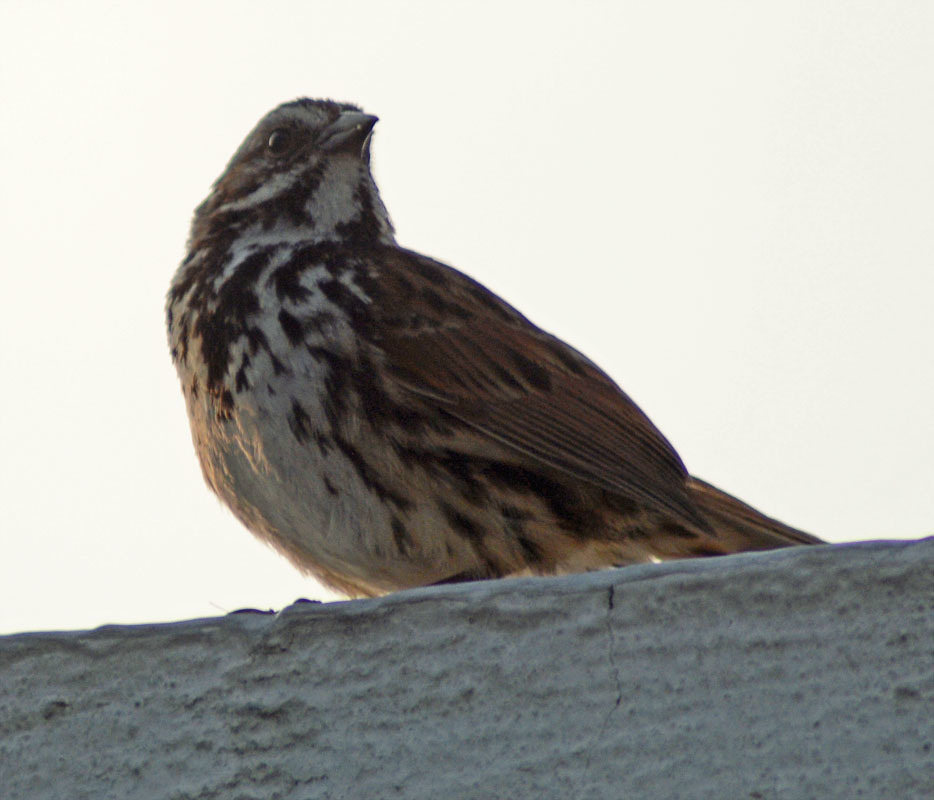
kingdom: Animalia
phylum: Chordata
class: Aves
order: Passeriformes
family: Passerellidae
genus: Melospiza
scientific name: Melospiza melodia
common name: Song sparrow
